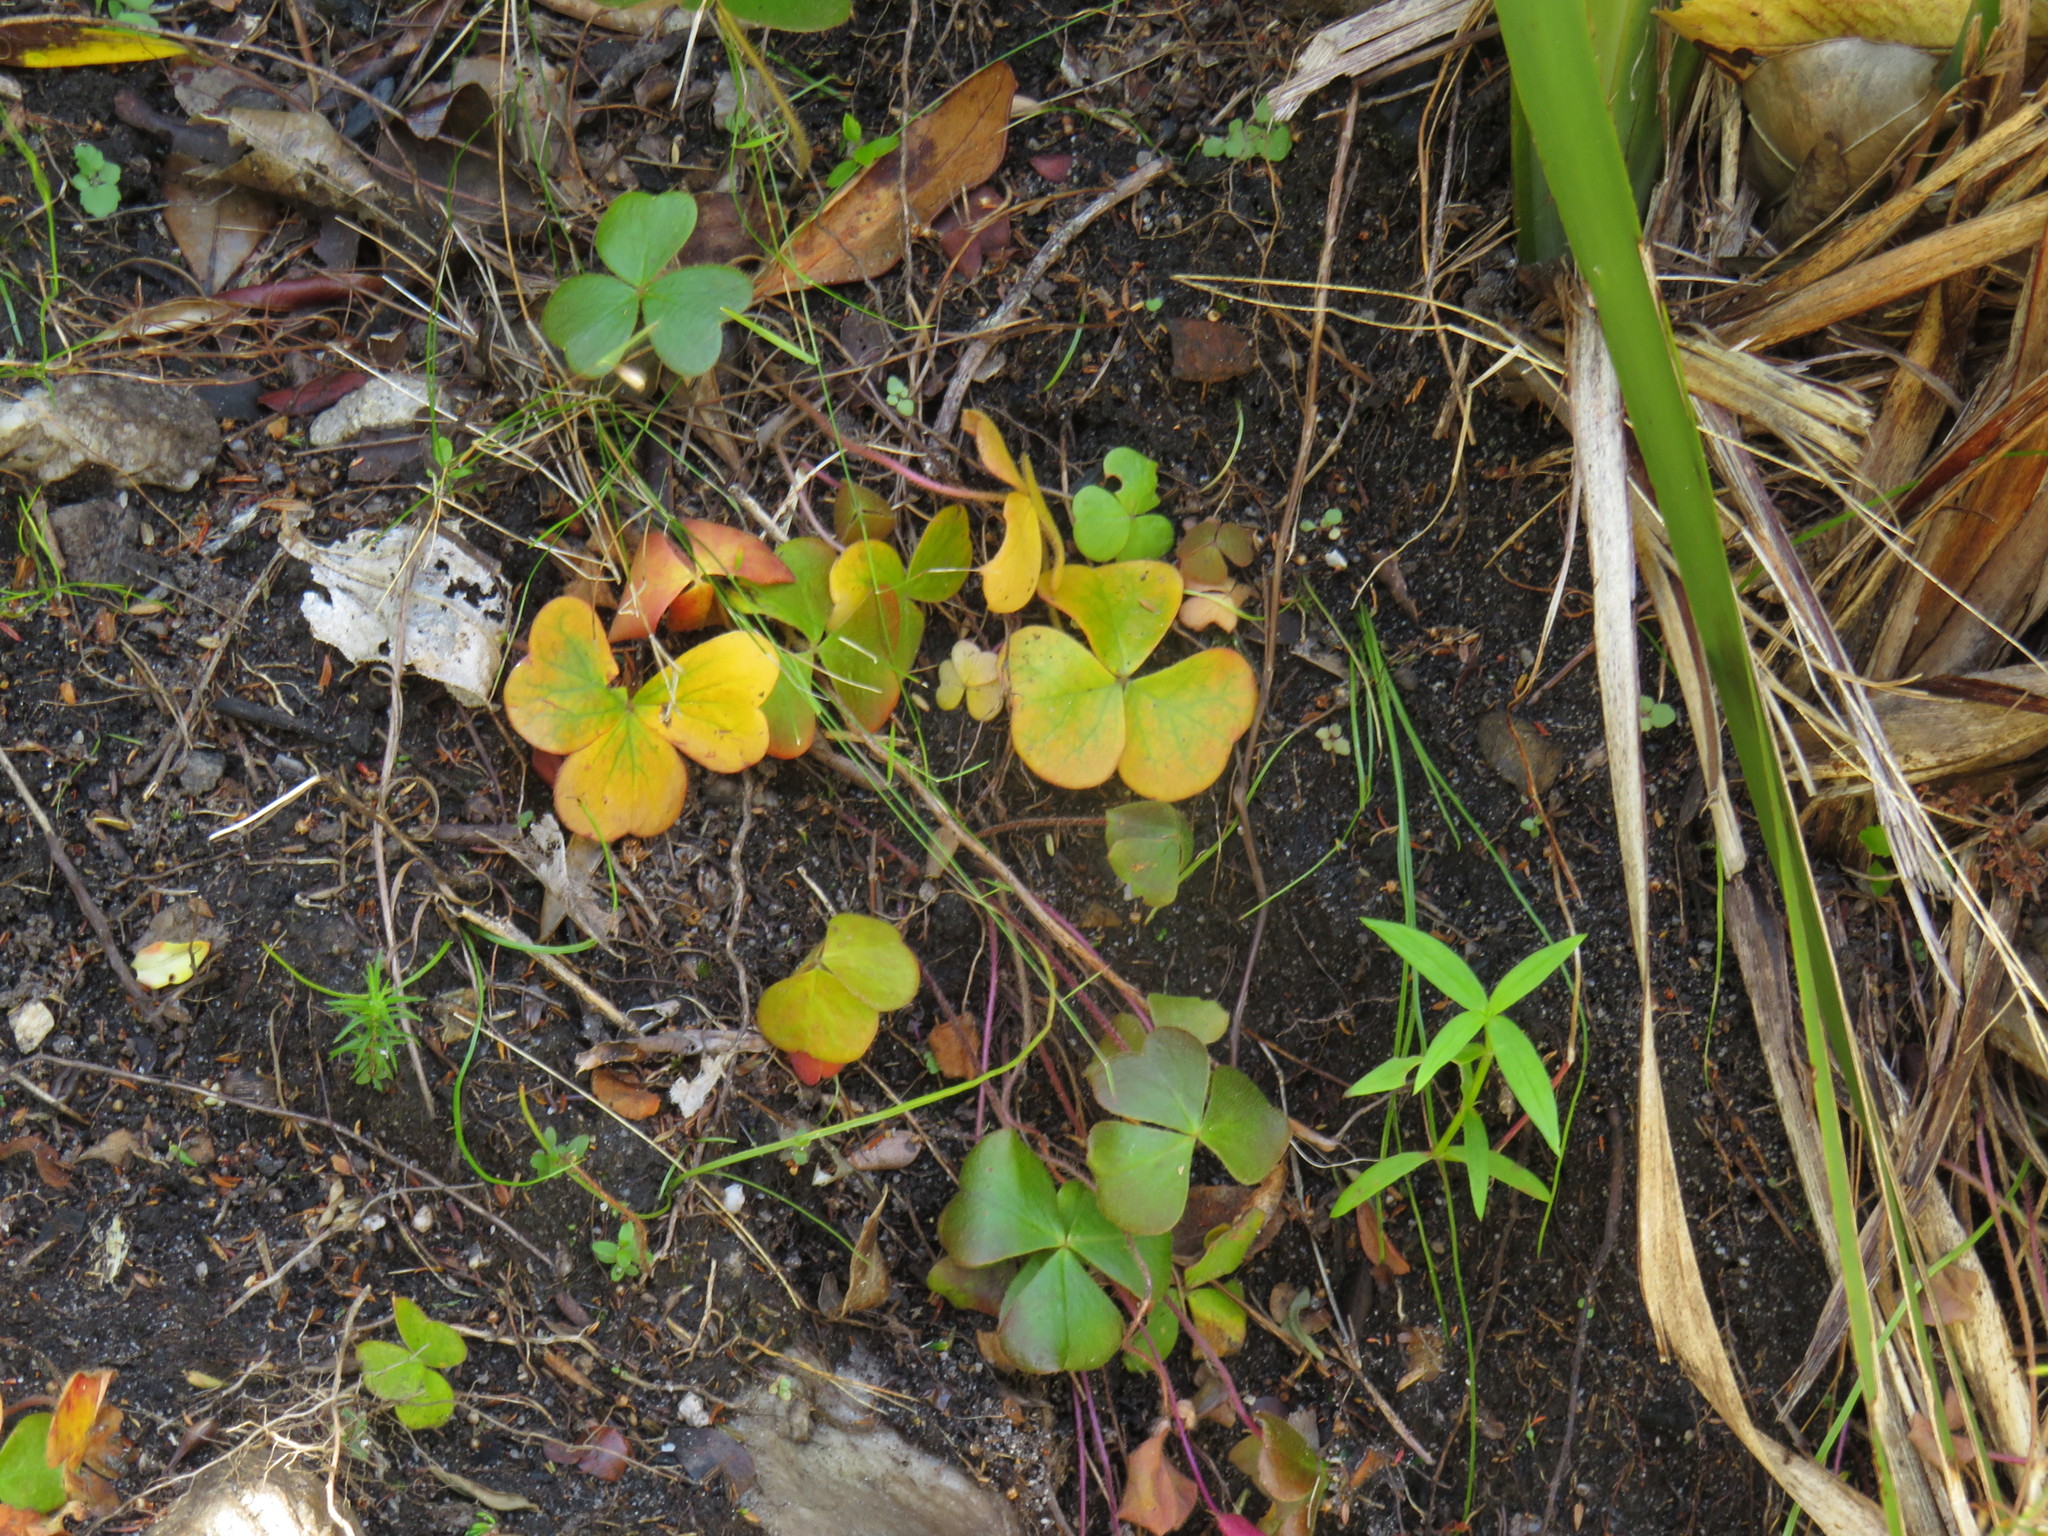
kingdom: Plantae
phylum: Tracheophyta
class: Magnoliopsida
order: Oxalidales
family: Oxalidaceae
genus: Oxalis
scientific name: Oxalis truncatula
